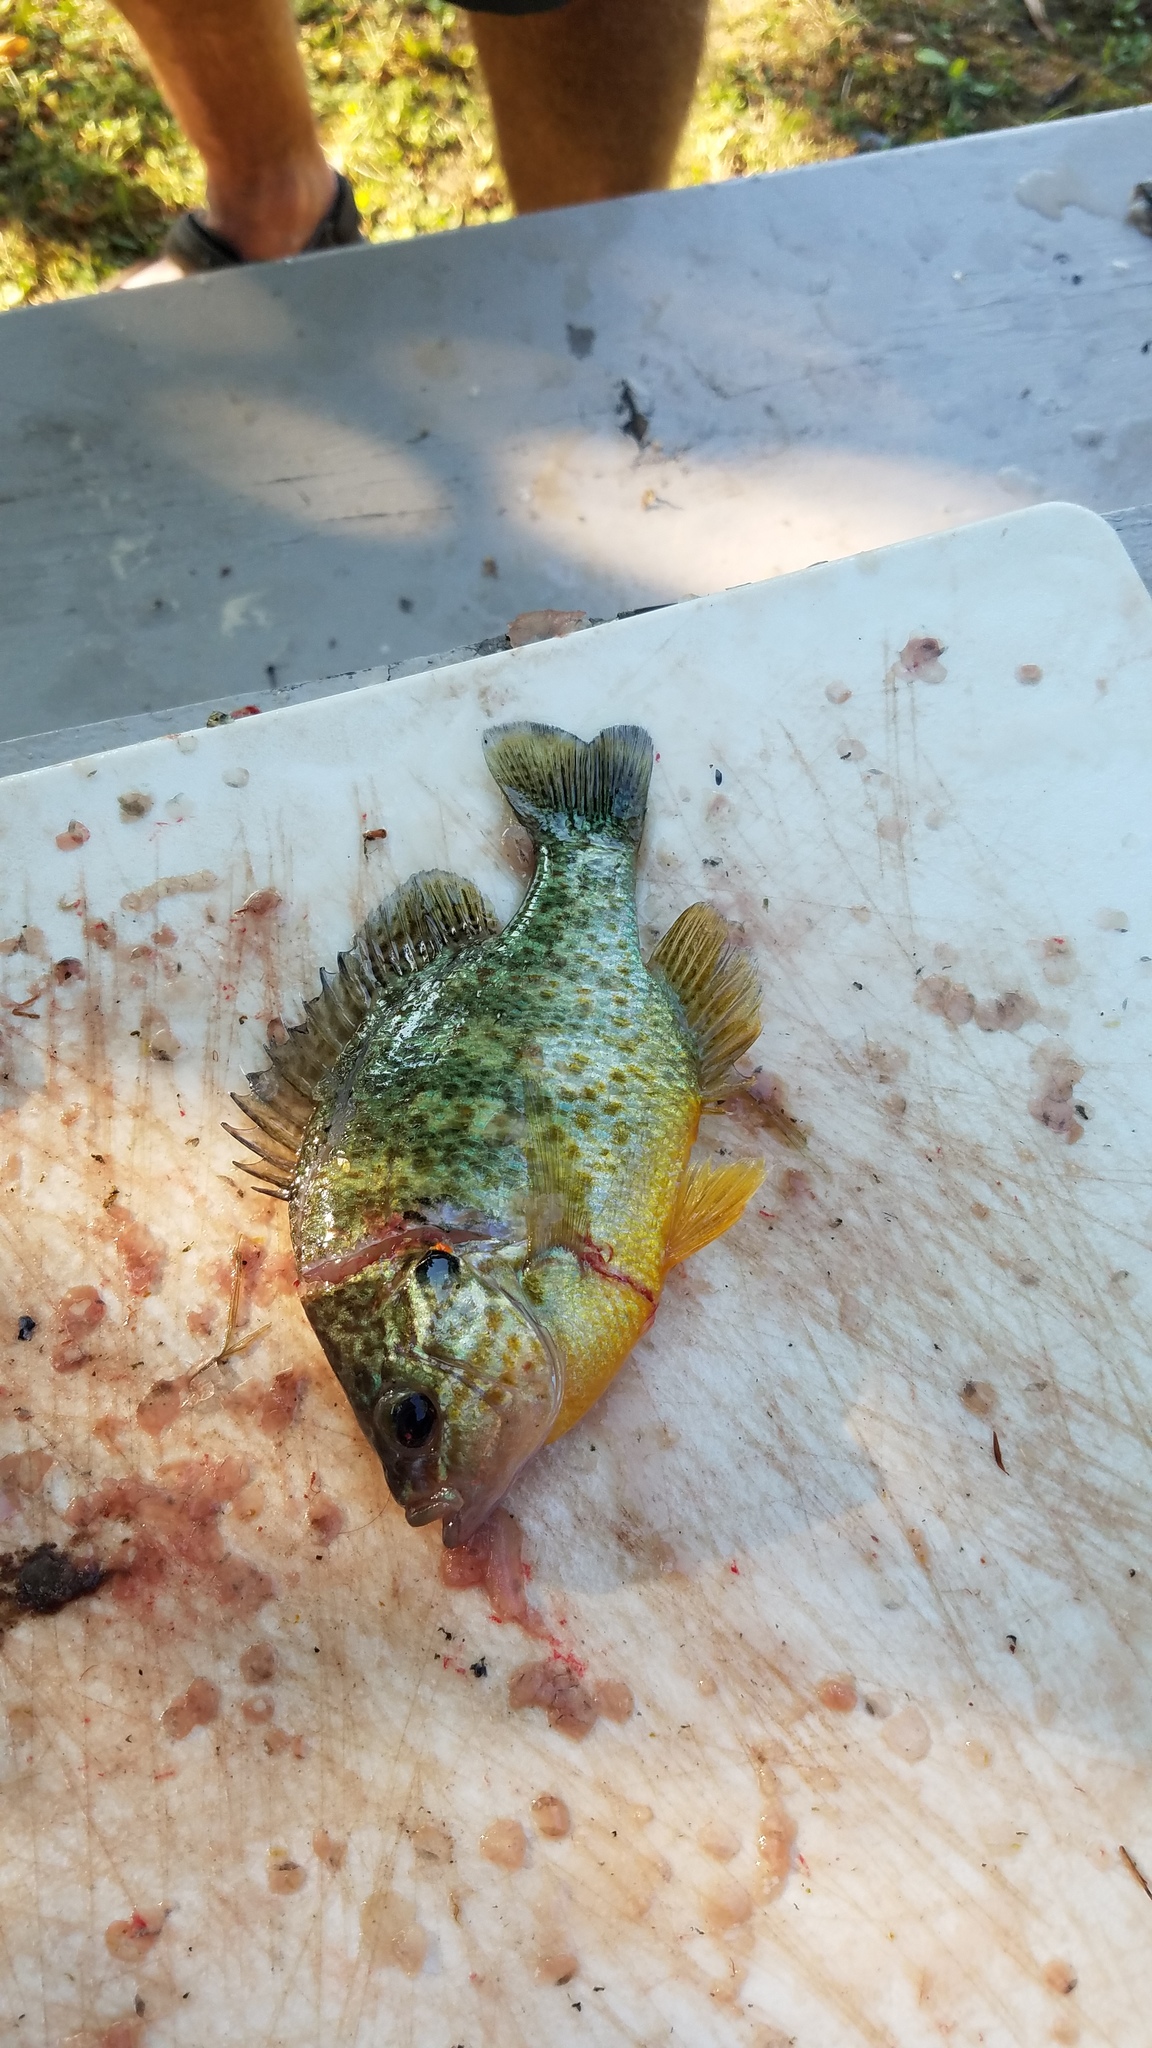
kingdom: Animalia
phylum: Chordata
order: Perciformes
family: Centrarchidae
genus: Lepomis
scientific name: Lepomis gibbosus
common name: Pumpkinseed
